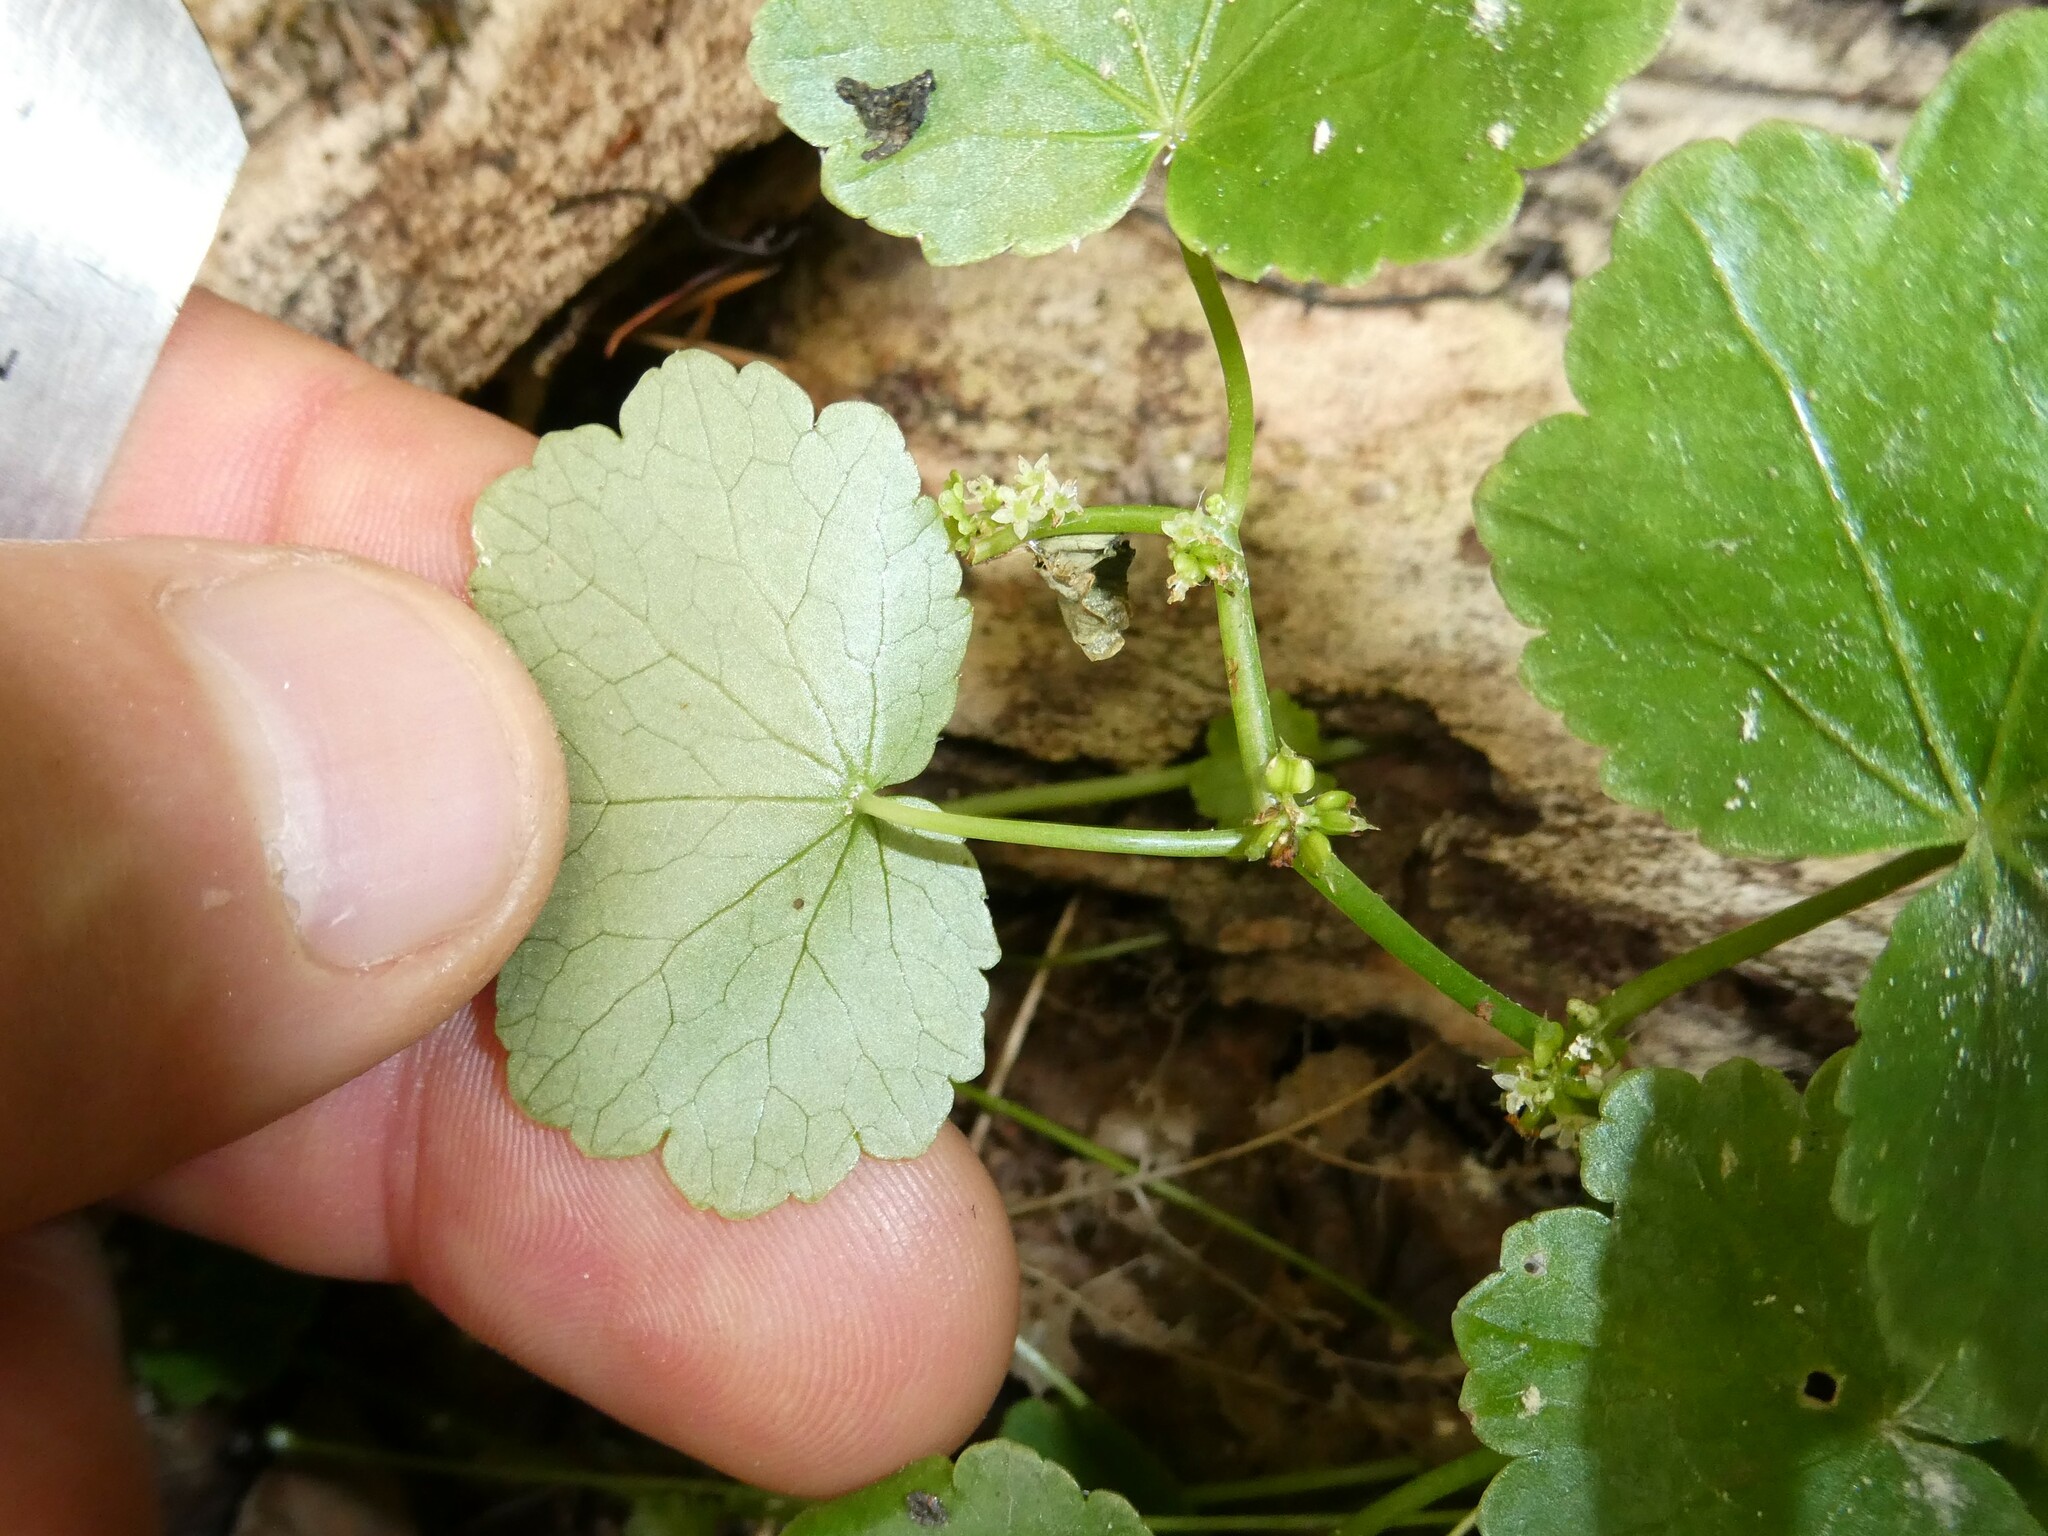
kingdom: Plantae
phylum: Tracheophyta
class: Magnoliopsida
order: Apiales
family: Araliaceae
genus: Hydrocotyle
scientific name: Hydrocotyle americana
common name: American water-pennywort
